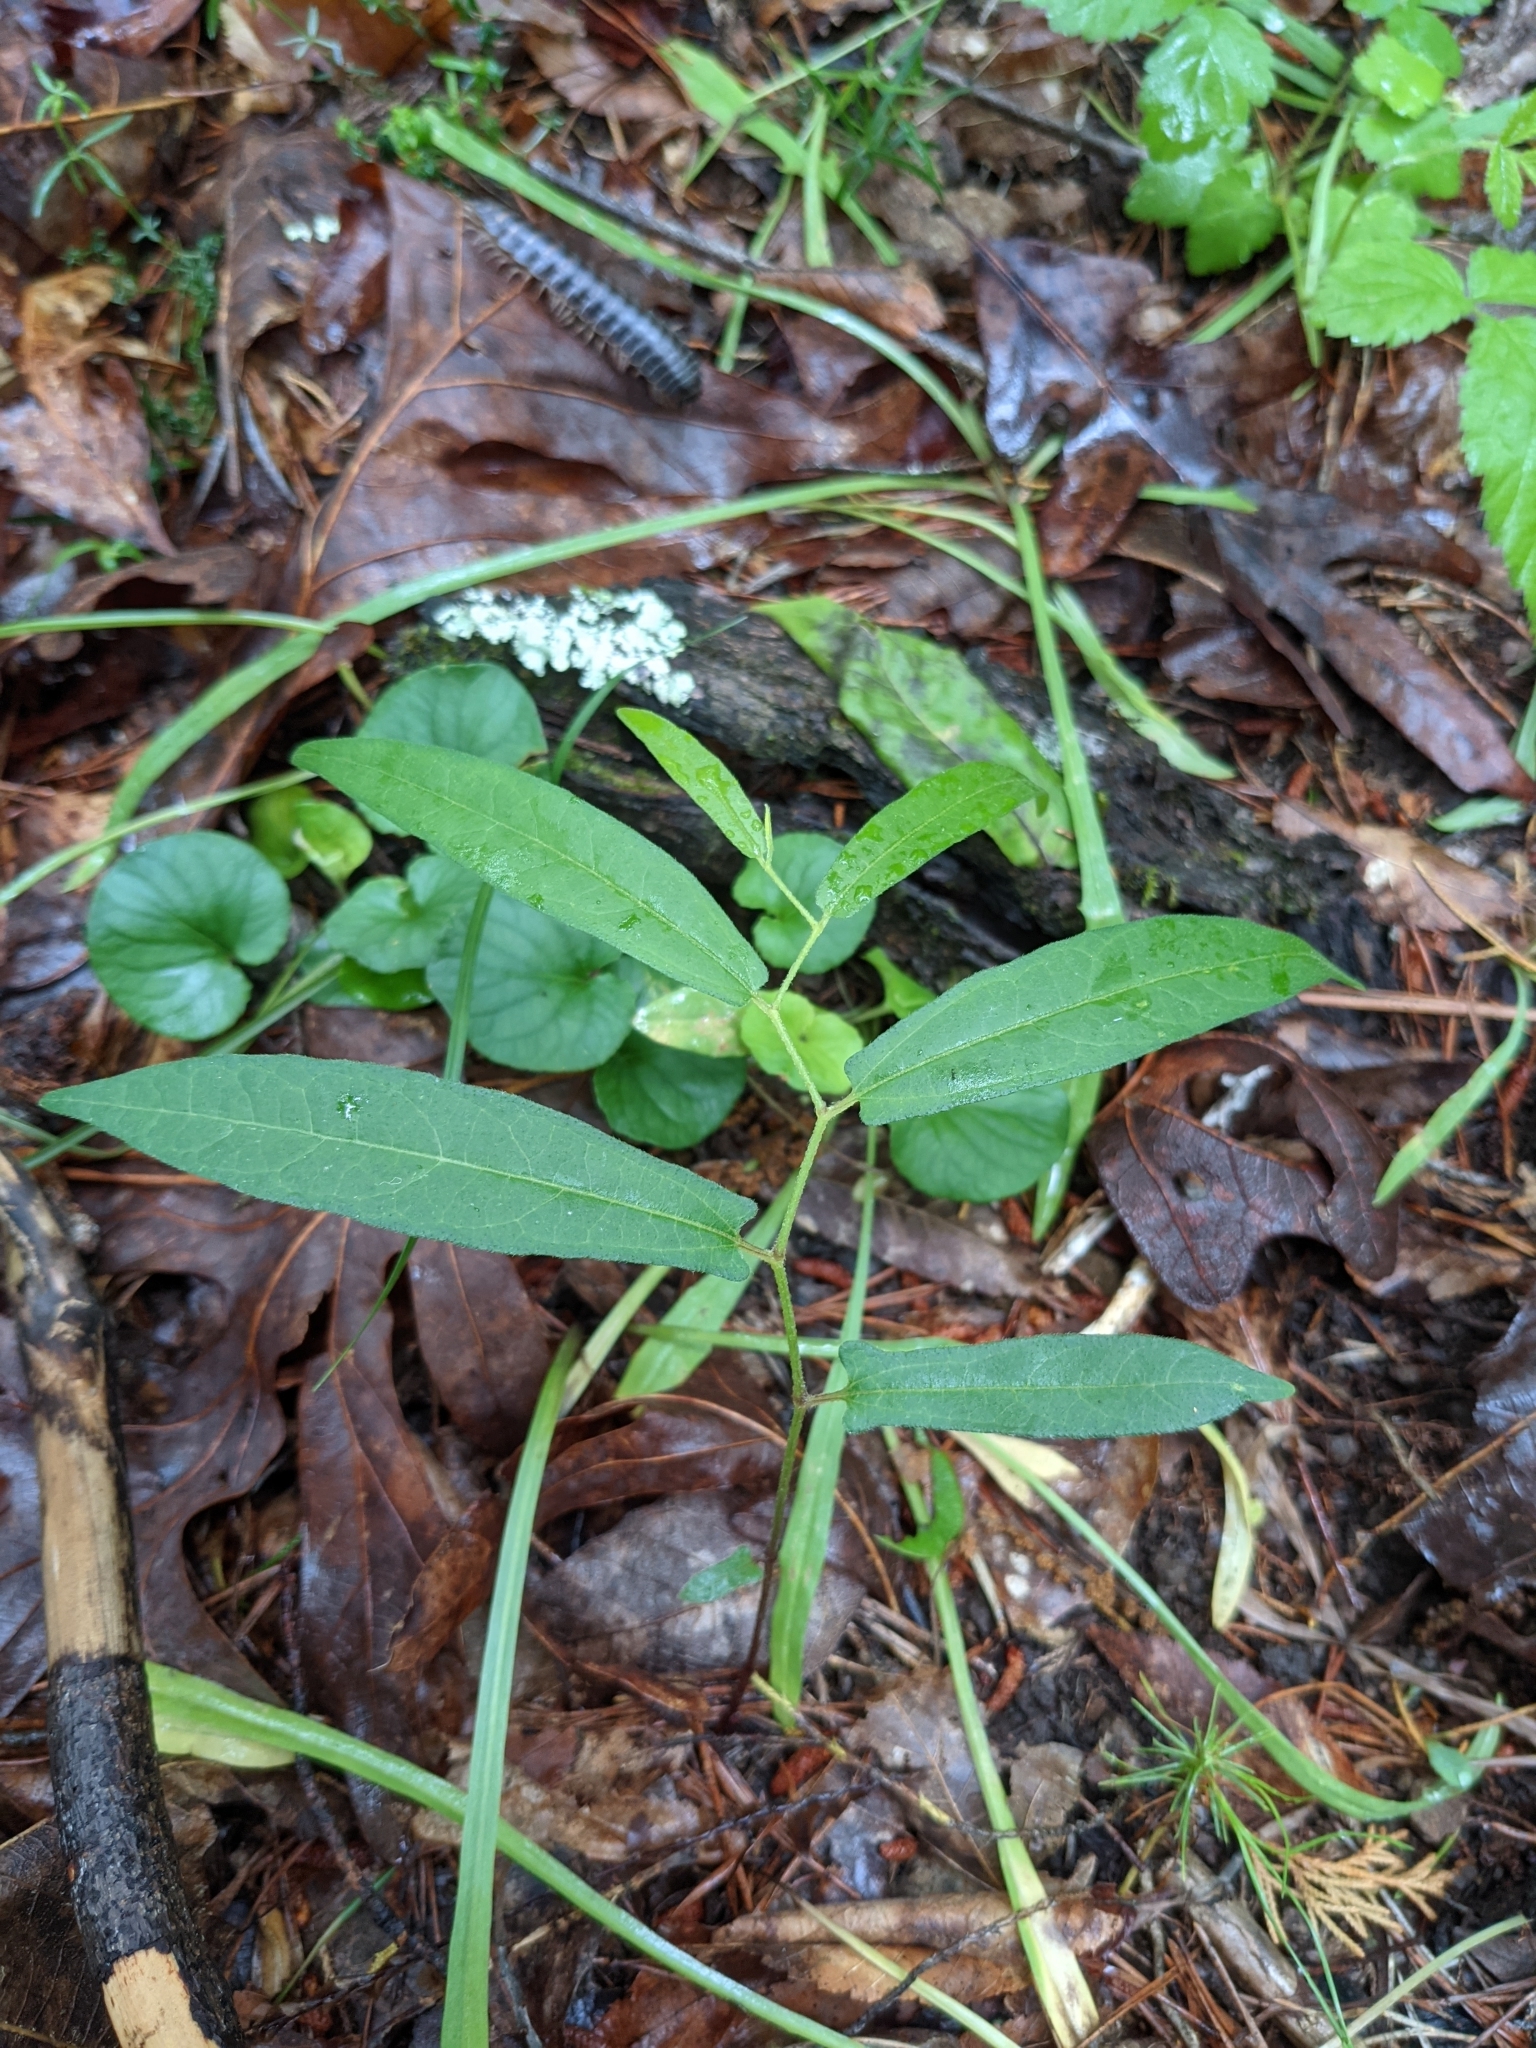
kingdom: Plantae
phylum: Tracheophyta
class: Magnoliopsida
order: Piperales
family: Aristolochiaceae
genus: Endodeca
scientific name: Endodeca serpentaria
